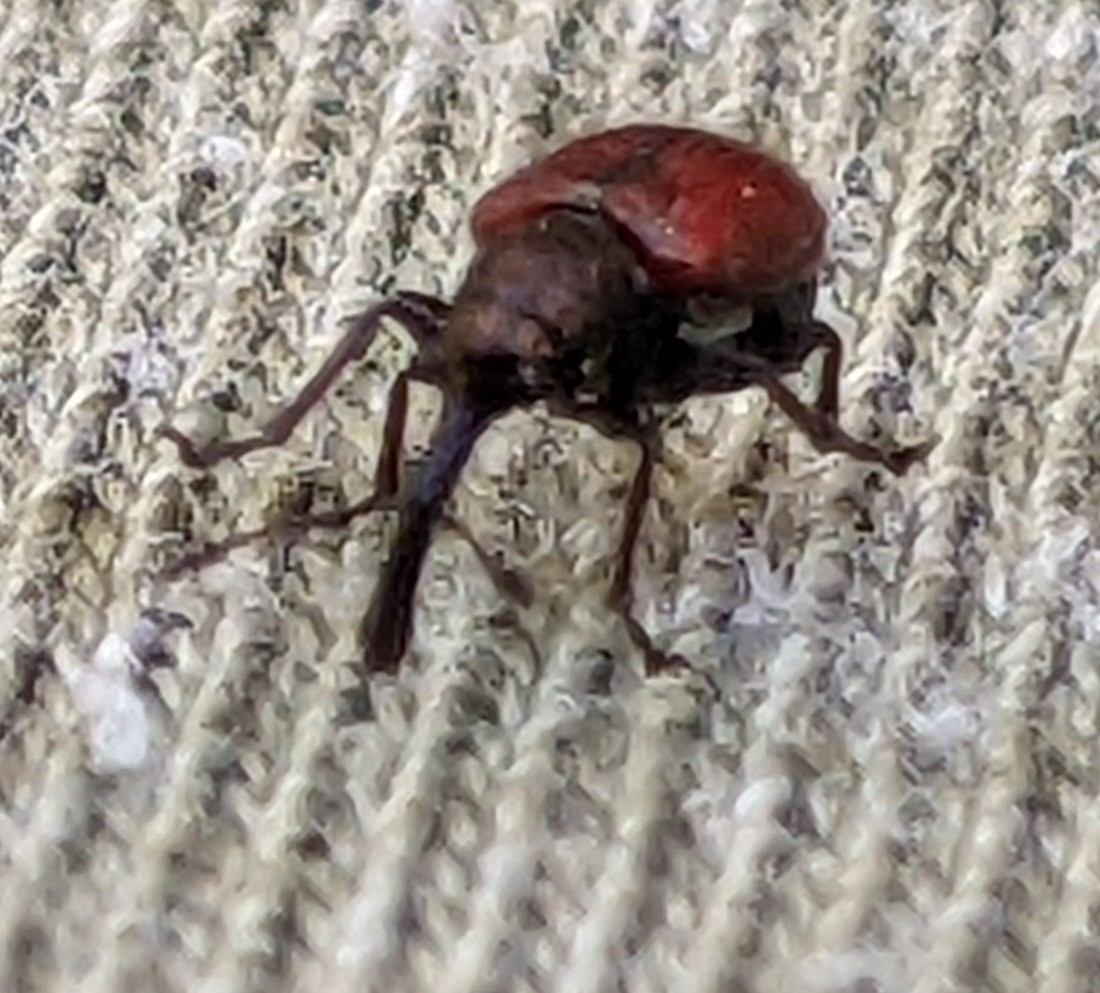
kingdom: Animalia
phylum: Arthropoda
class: Insecta
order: Coleoptera
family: Rhynchitidae
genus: Tatianaerhynchites
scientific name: Tatianaerhynchites aequatus
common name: Apple fruit rhynchites
